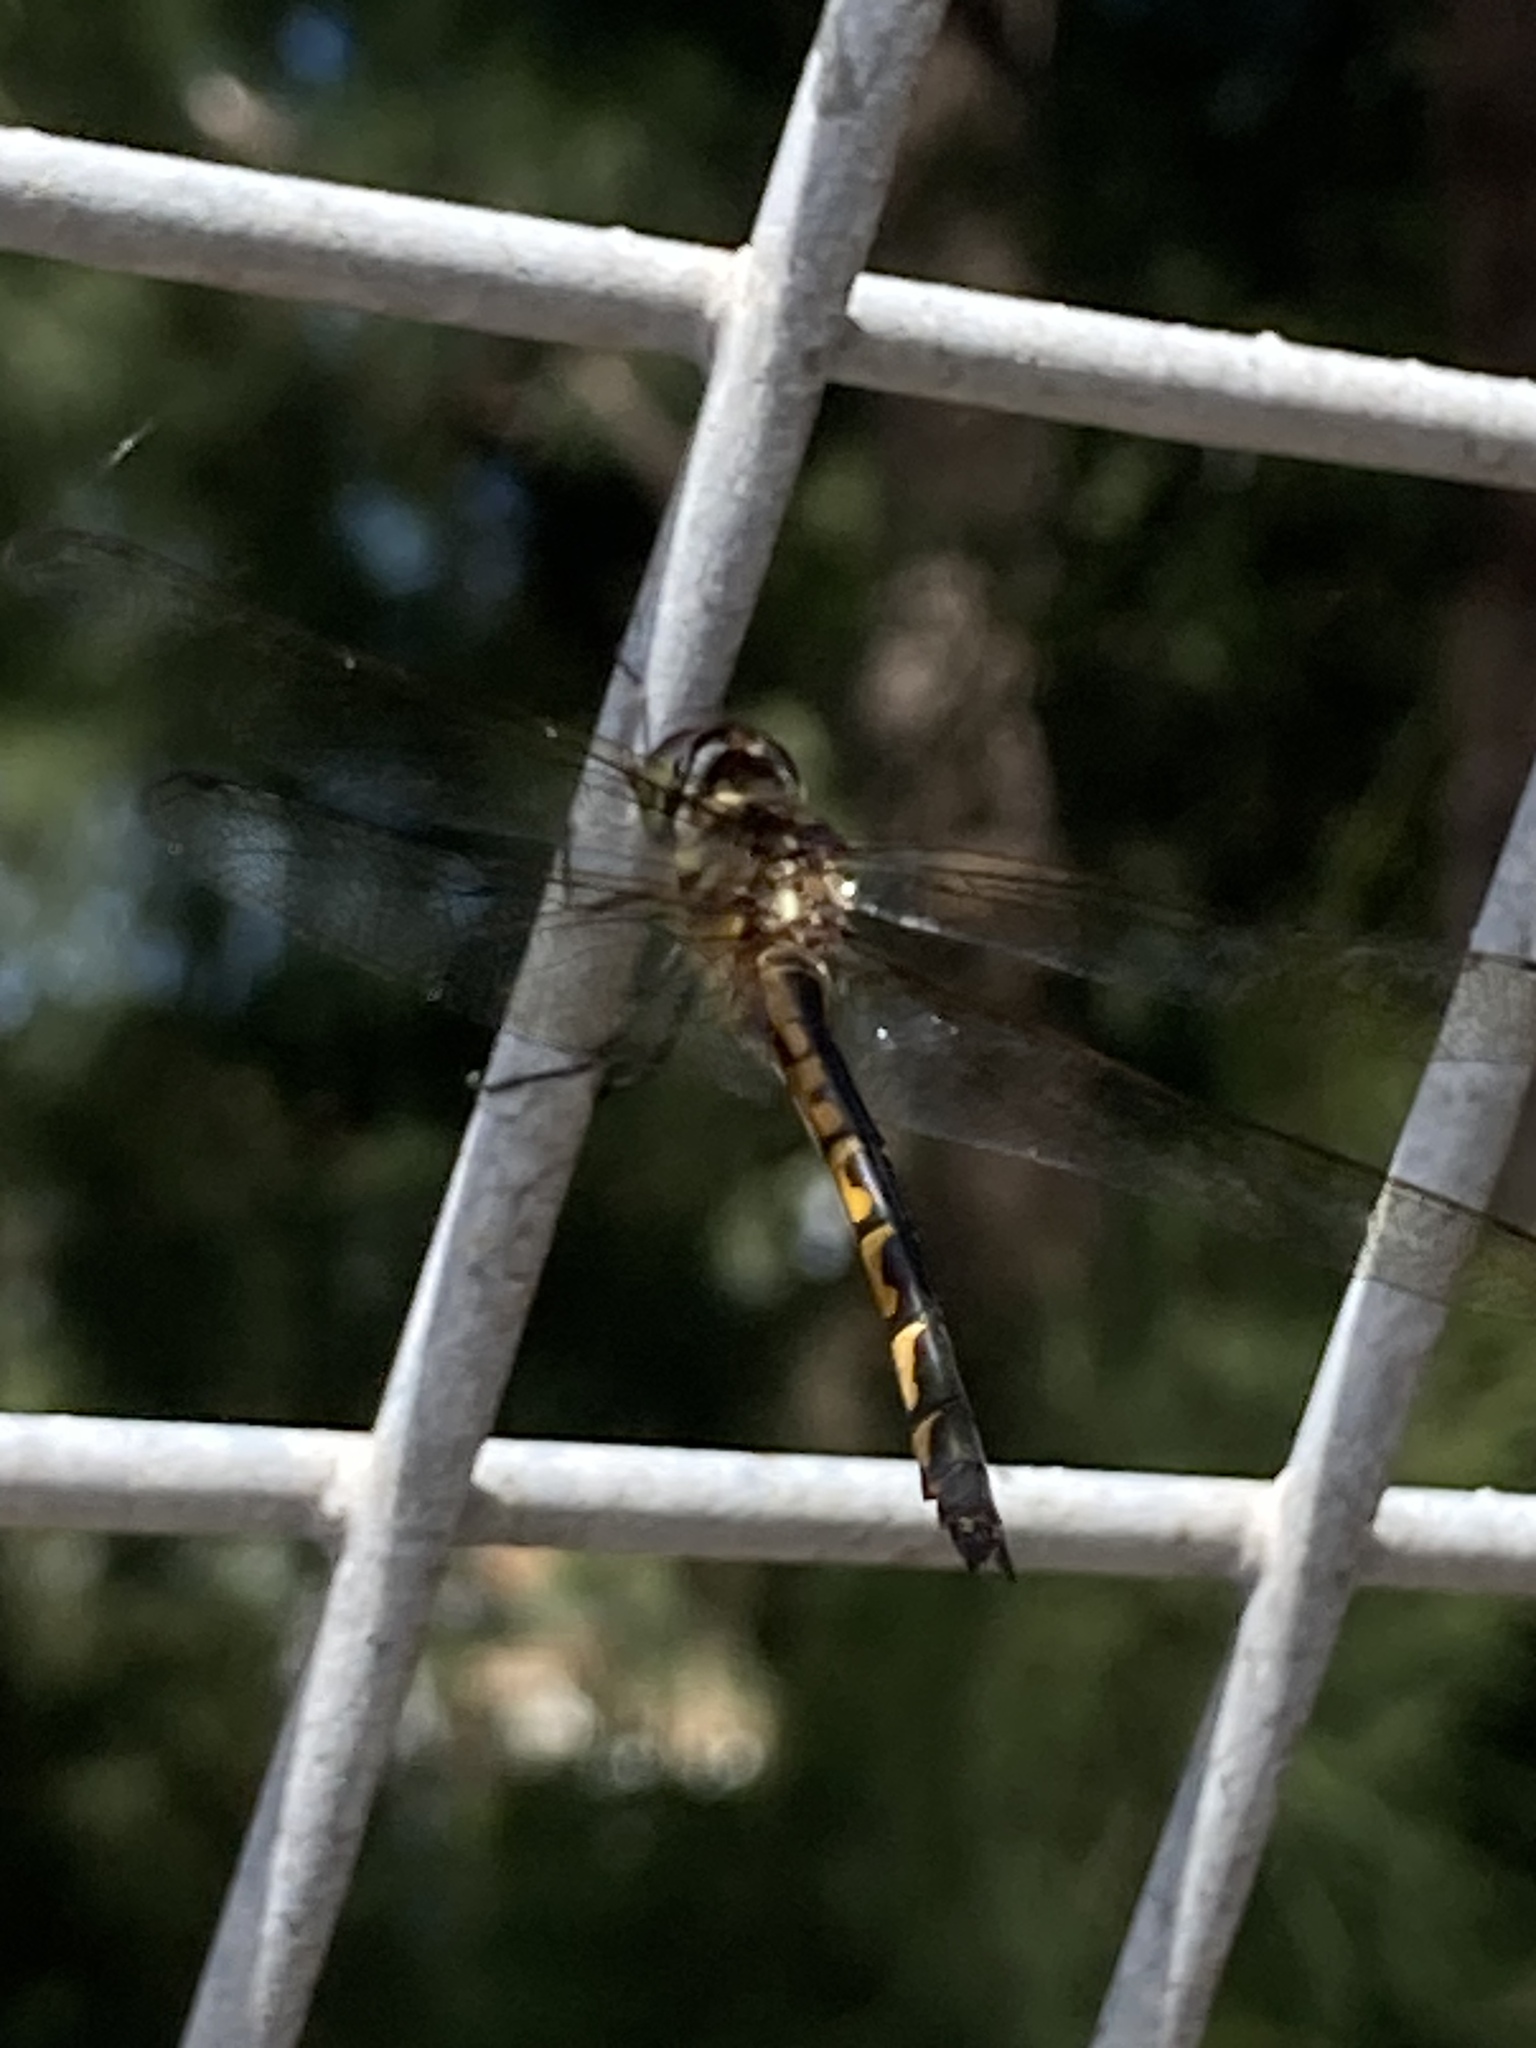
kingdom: Animalia
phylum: Arthropoda
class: Insecta
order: Odonata
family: Corduliidae
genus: Hemicordulia
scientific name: Hemicordulia australiae
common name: Sentry dragonfly
